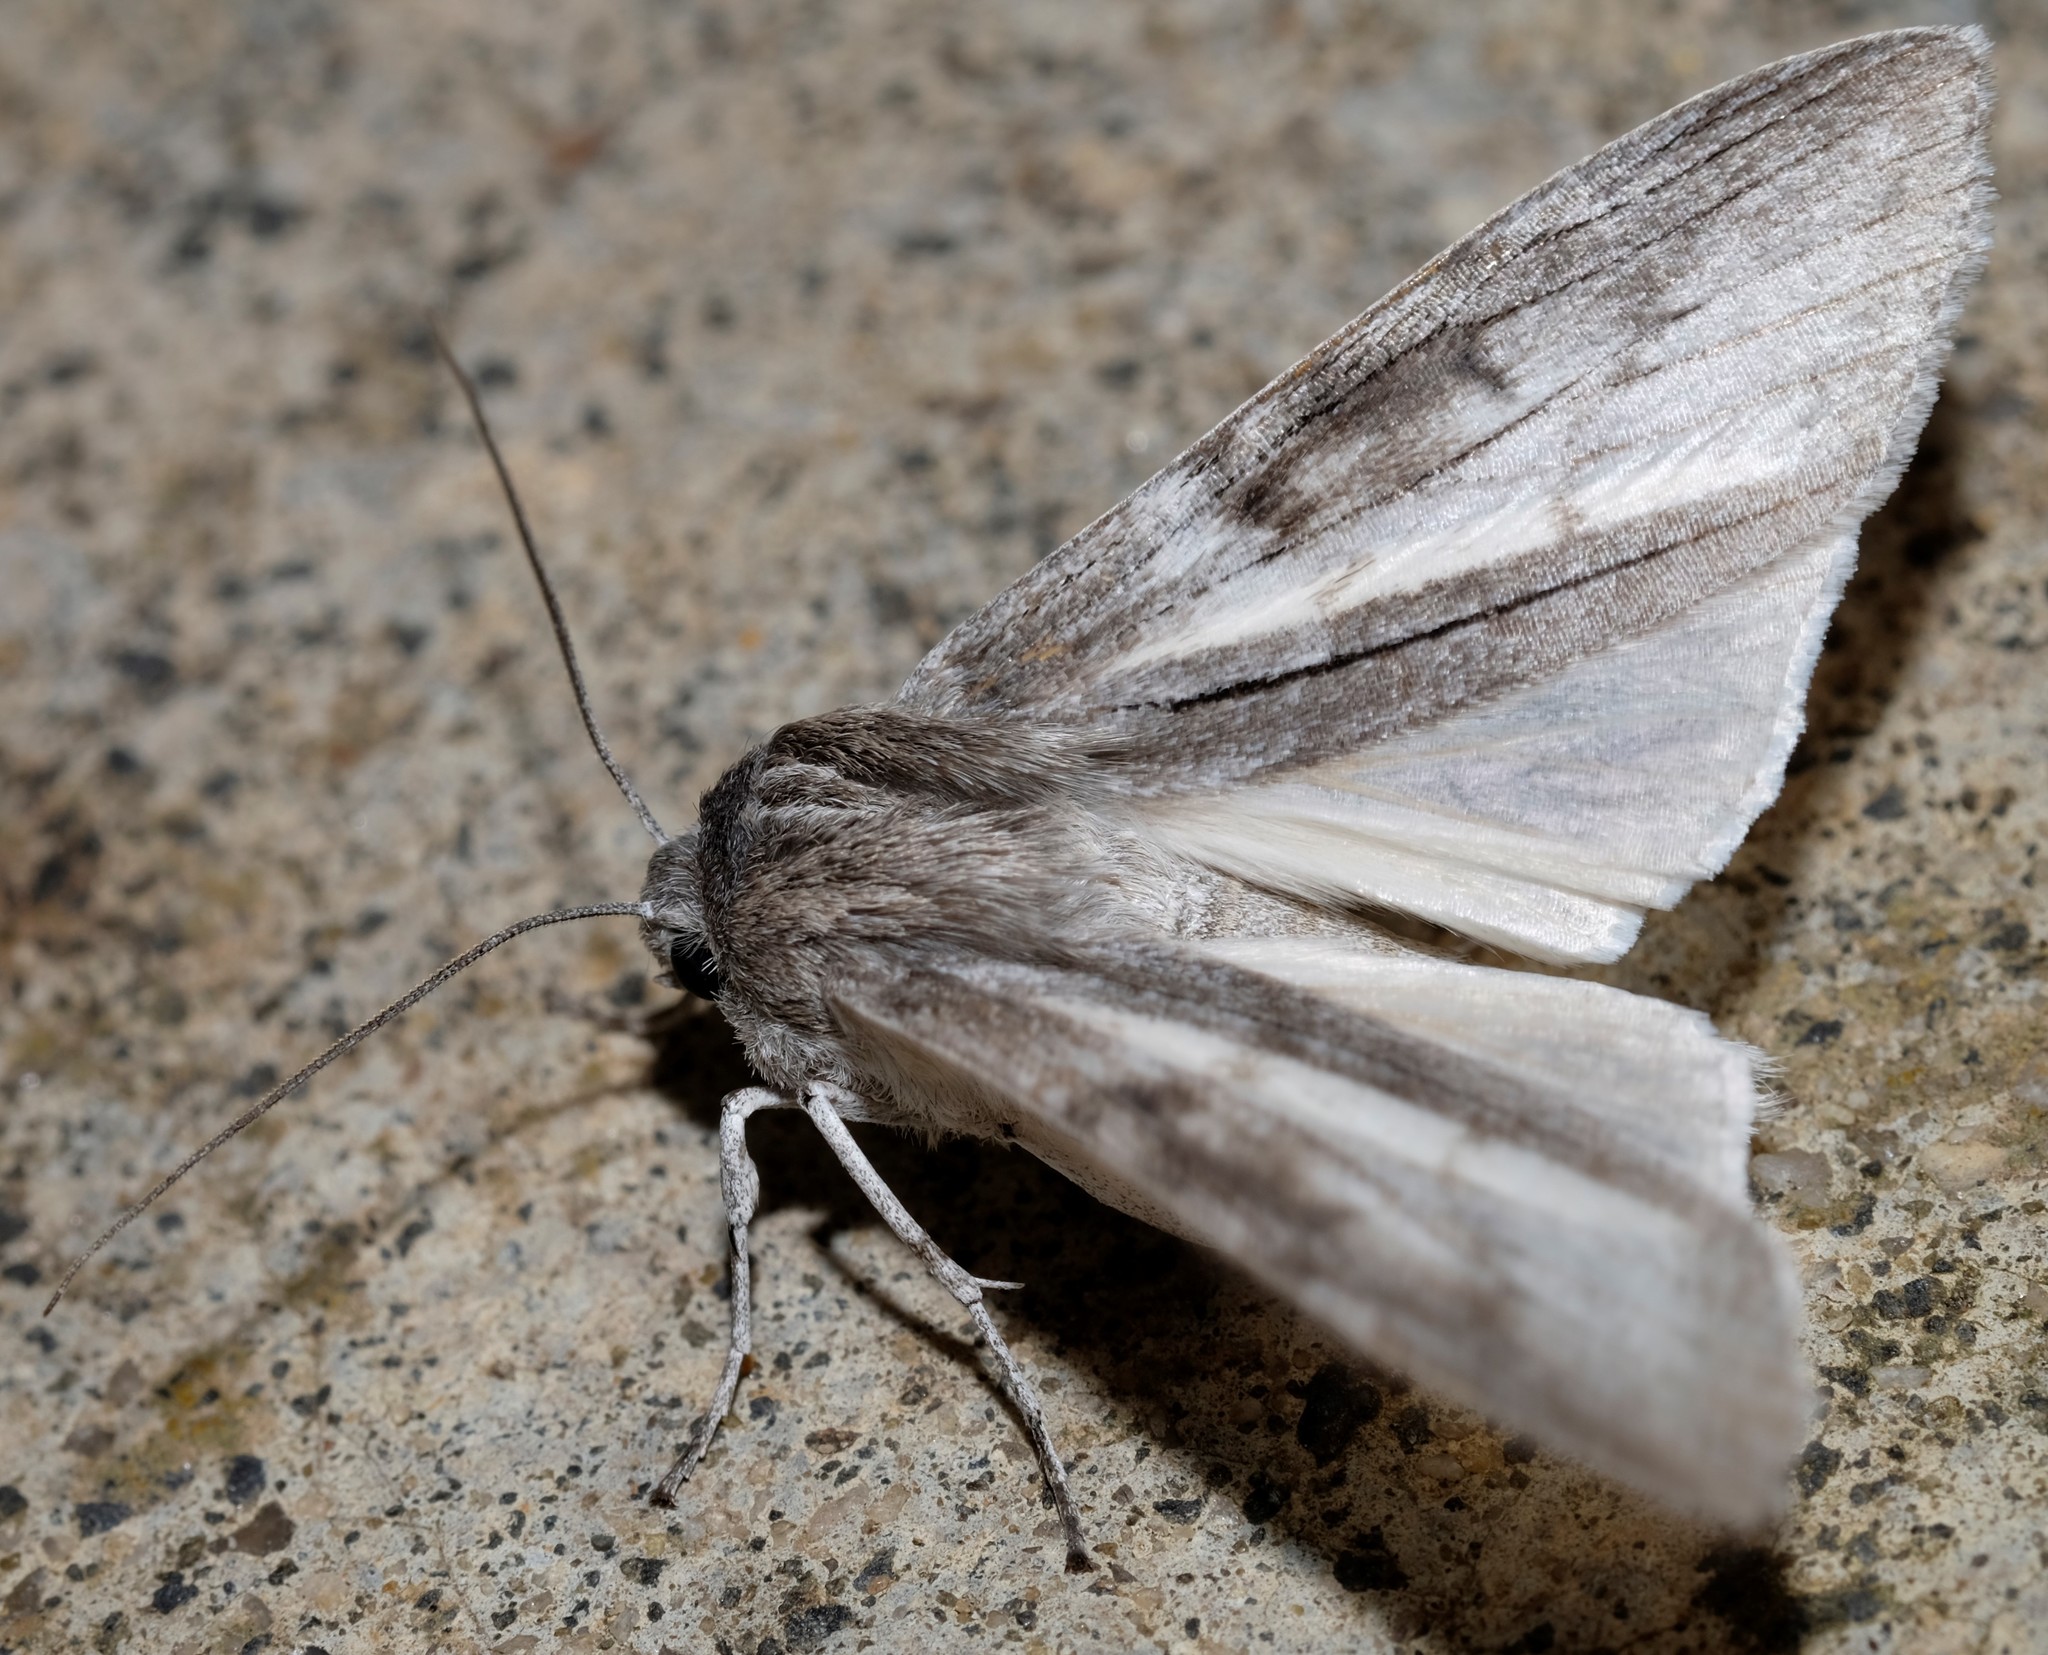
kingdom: Animalia
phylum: Arthropoda
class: Insecta
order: Lepidoptera
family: Geometridae
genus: Capusa
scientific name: Capusa cuculloides
